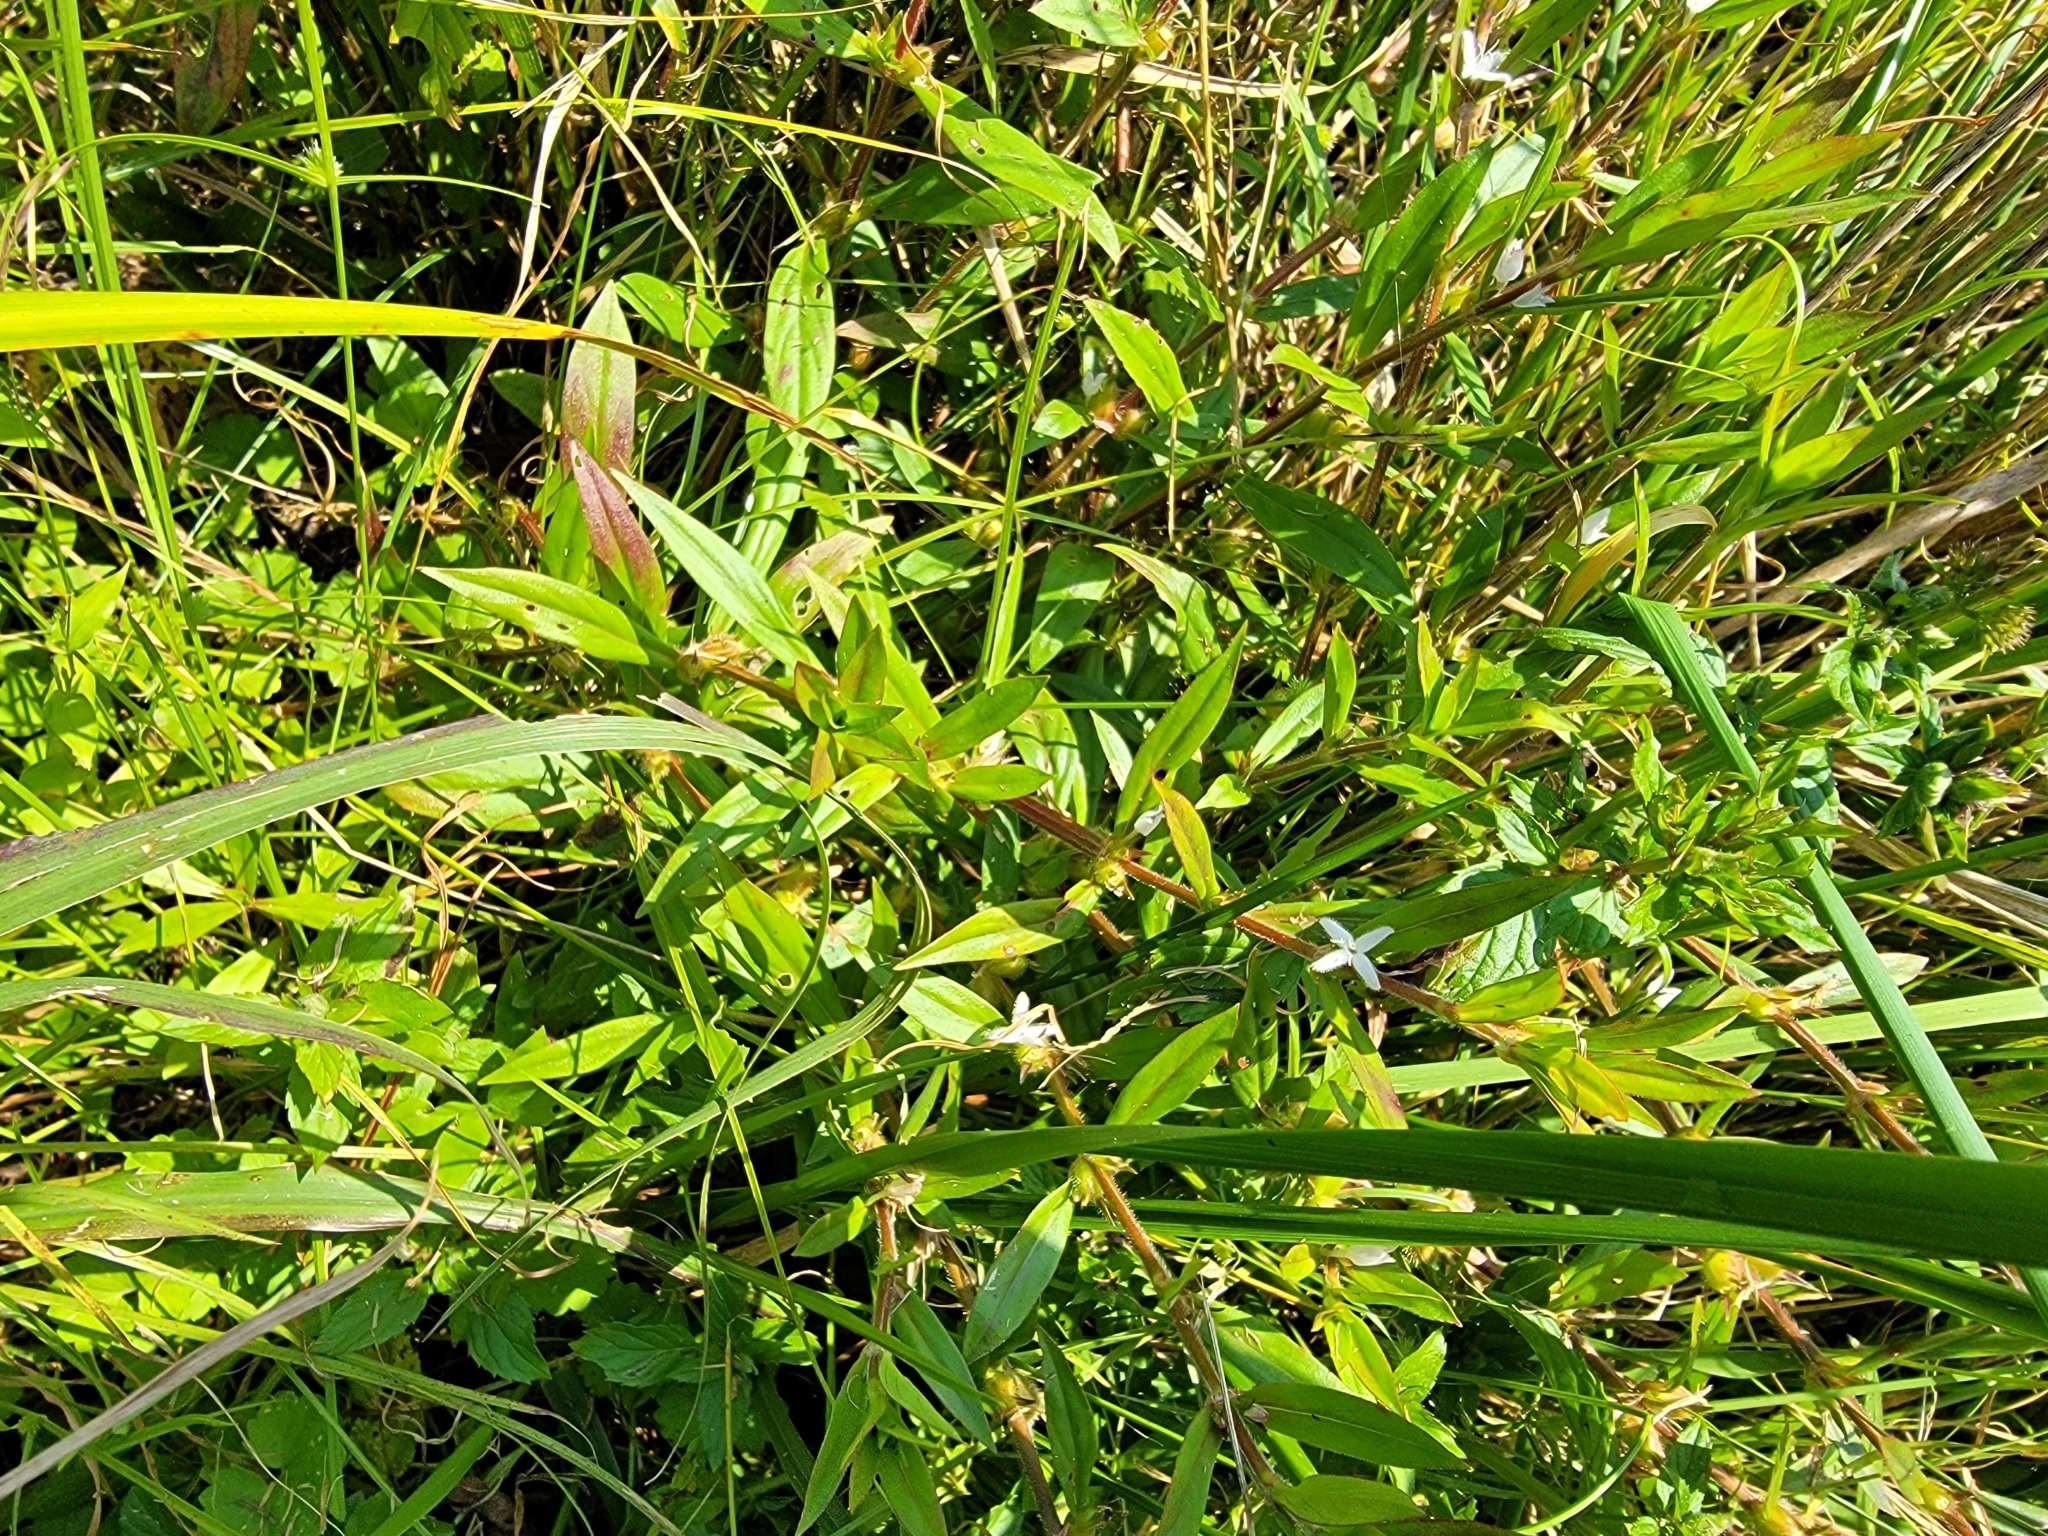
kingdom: Plantae
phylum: Tracheophyta
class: Magnoliopsida
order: Gentianales
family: Rubiaceae
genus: Diodia
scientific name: Diodia virginiana
